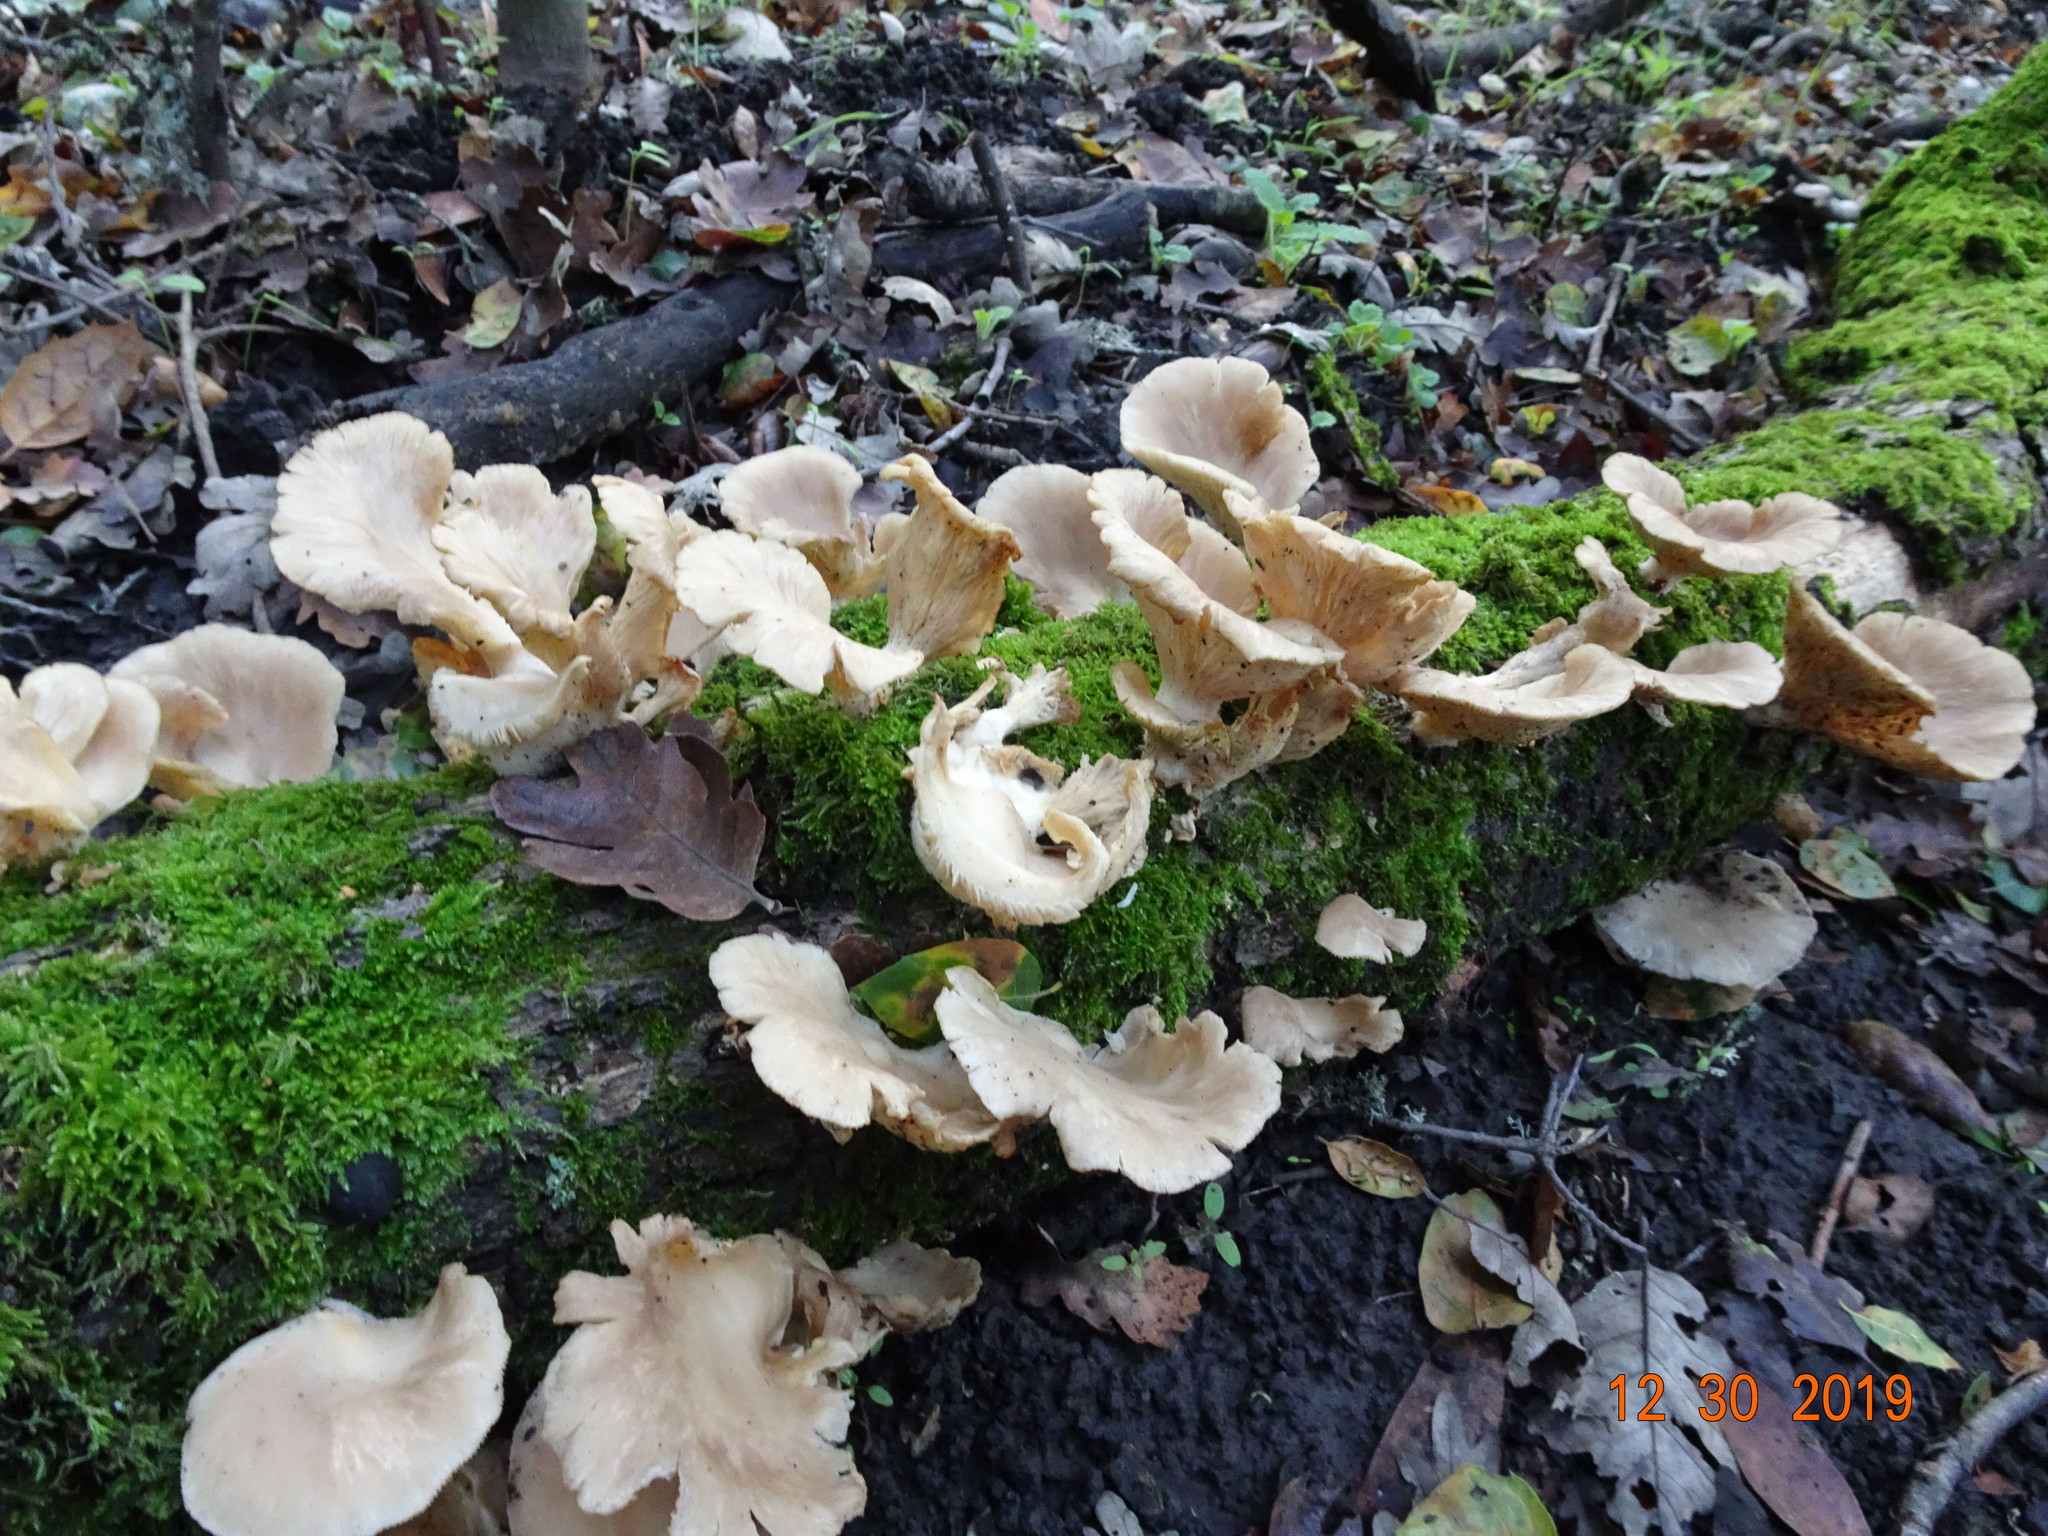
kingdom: Fungi
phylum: Basidiomycota
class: Agaricomycetes
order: Agaricales
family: Pleurotaceae
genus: Pleurotus
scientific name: Pleurotus ostreatus
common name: Oyster mushroom
